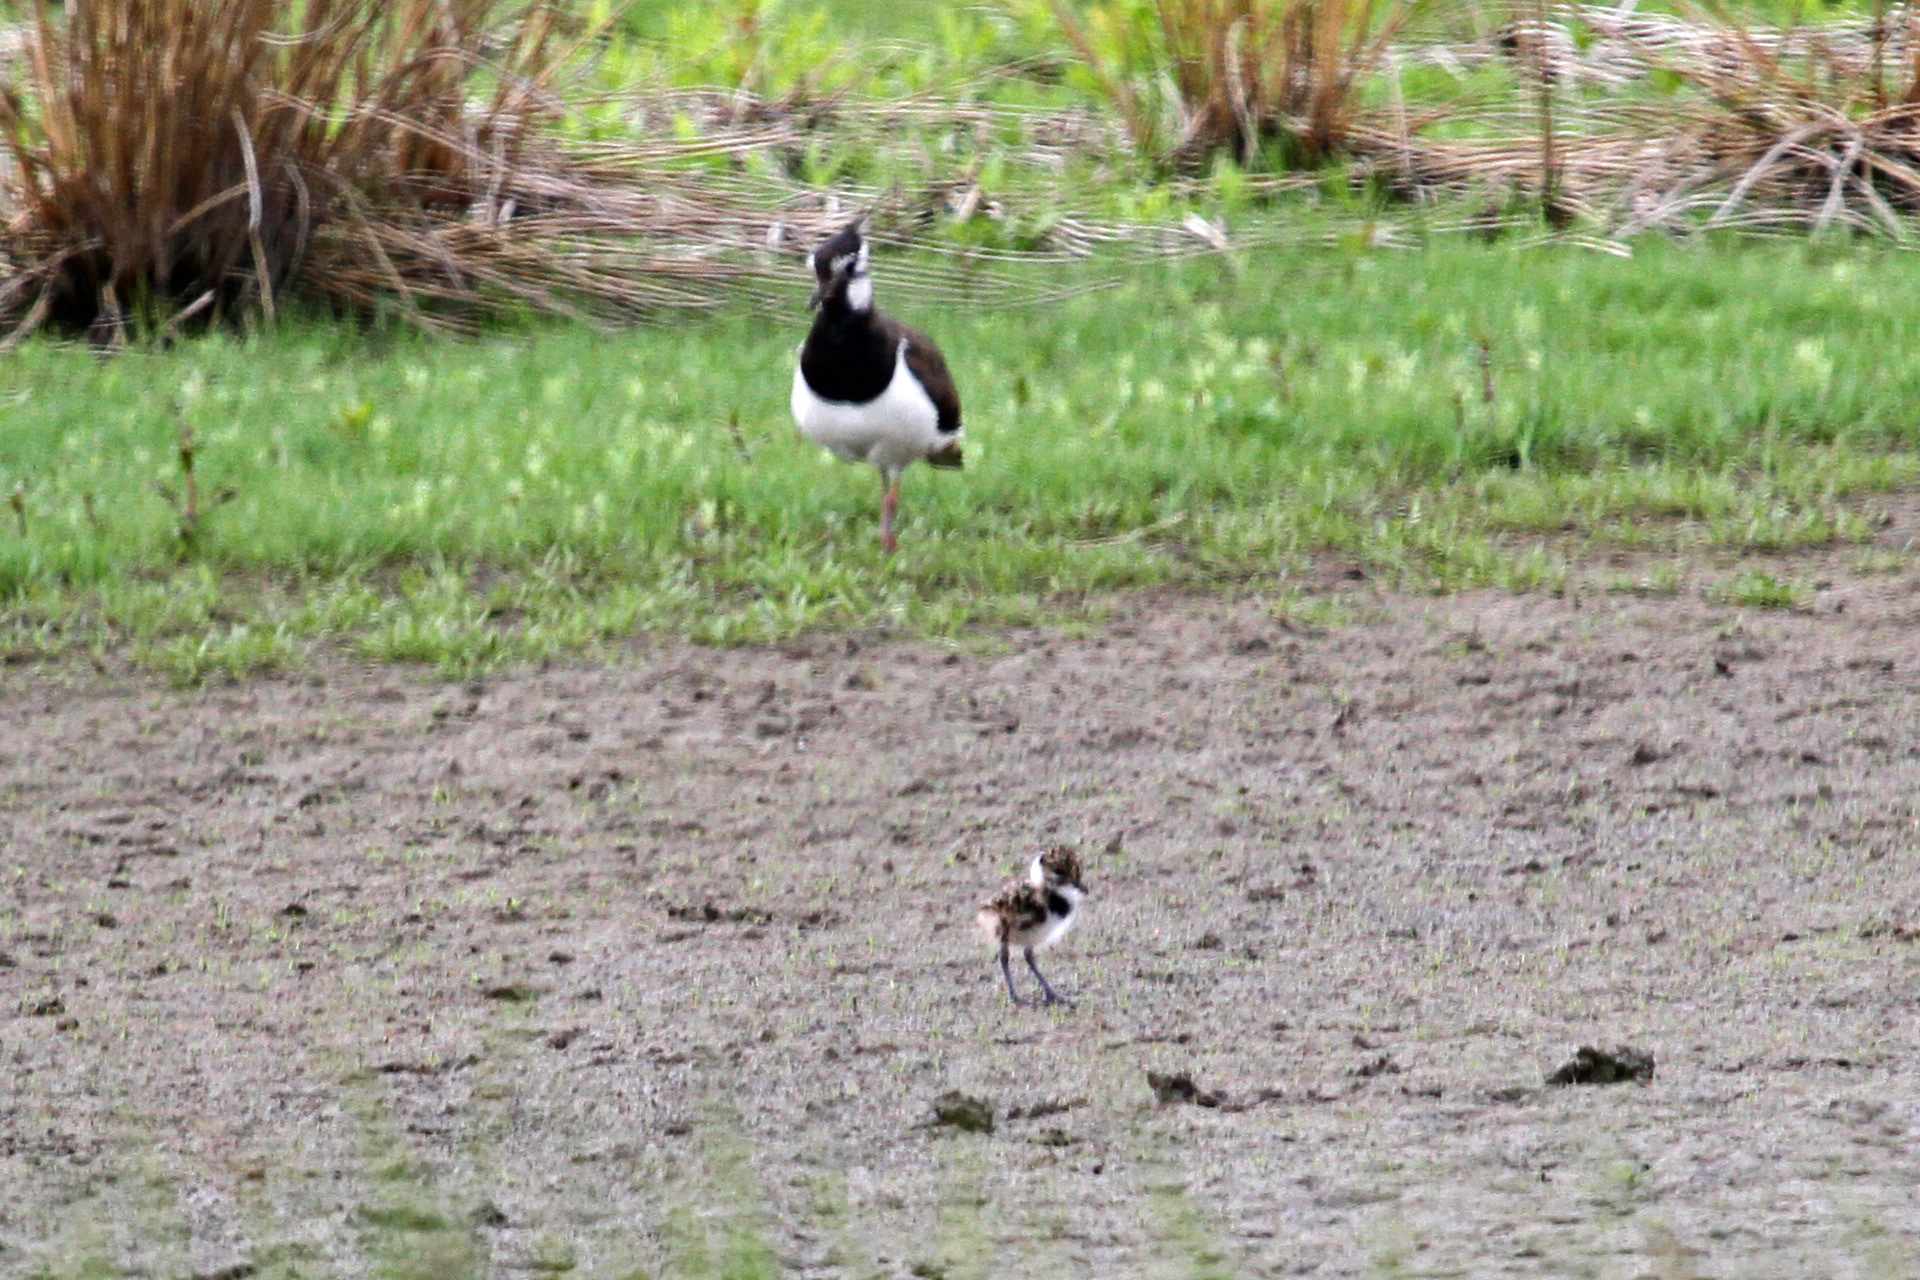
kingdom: Animalia
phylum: Chordata
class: Aves
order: Charadriiformes
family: Charadriidae
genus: Vanellus
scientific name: Vanellus vanellus
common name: Northern lapwing
